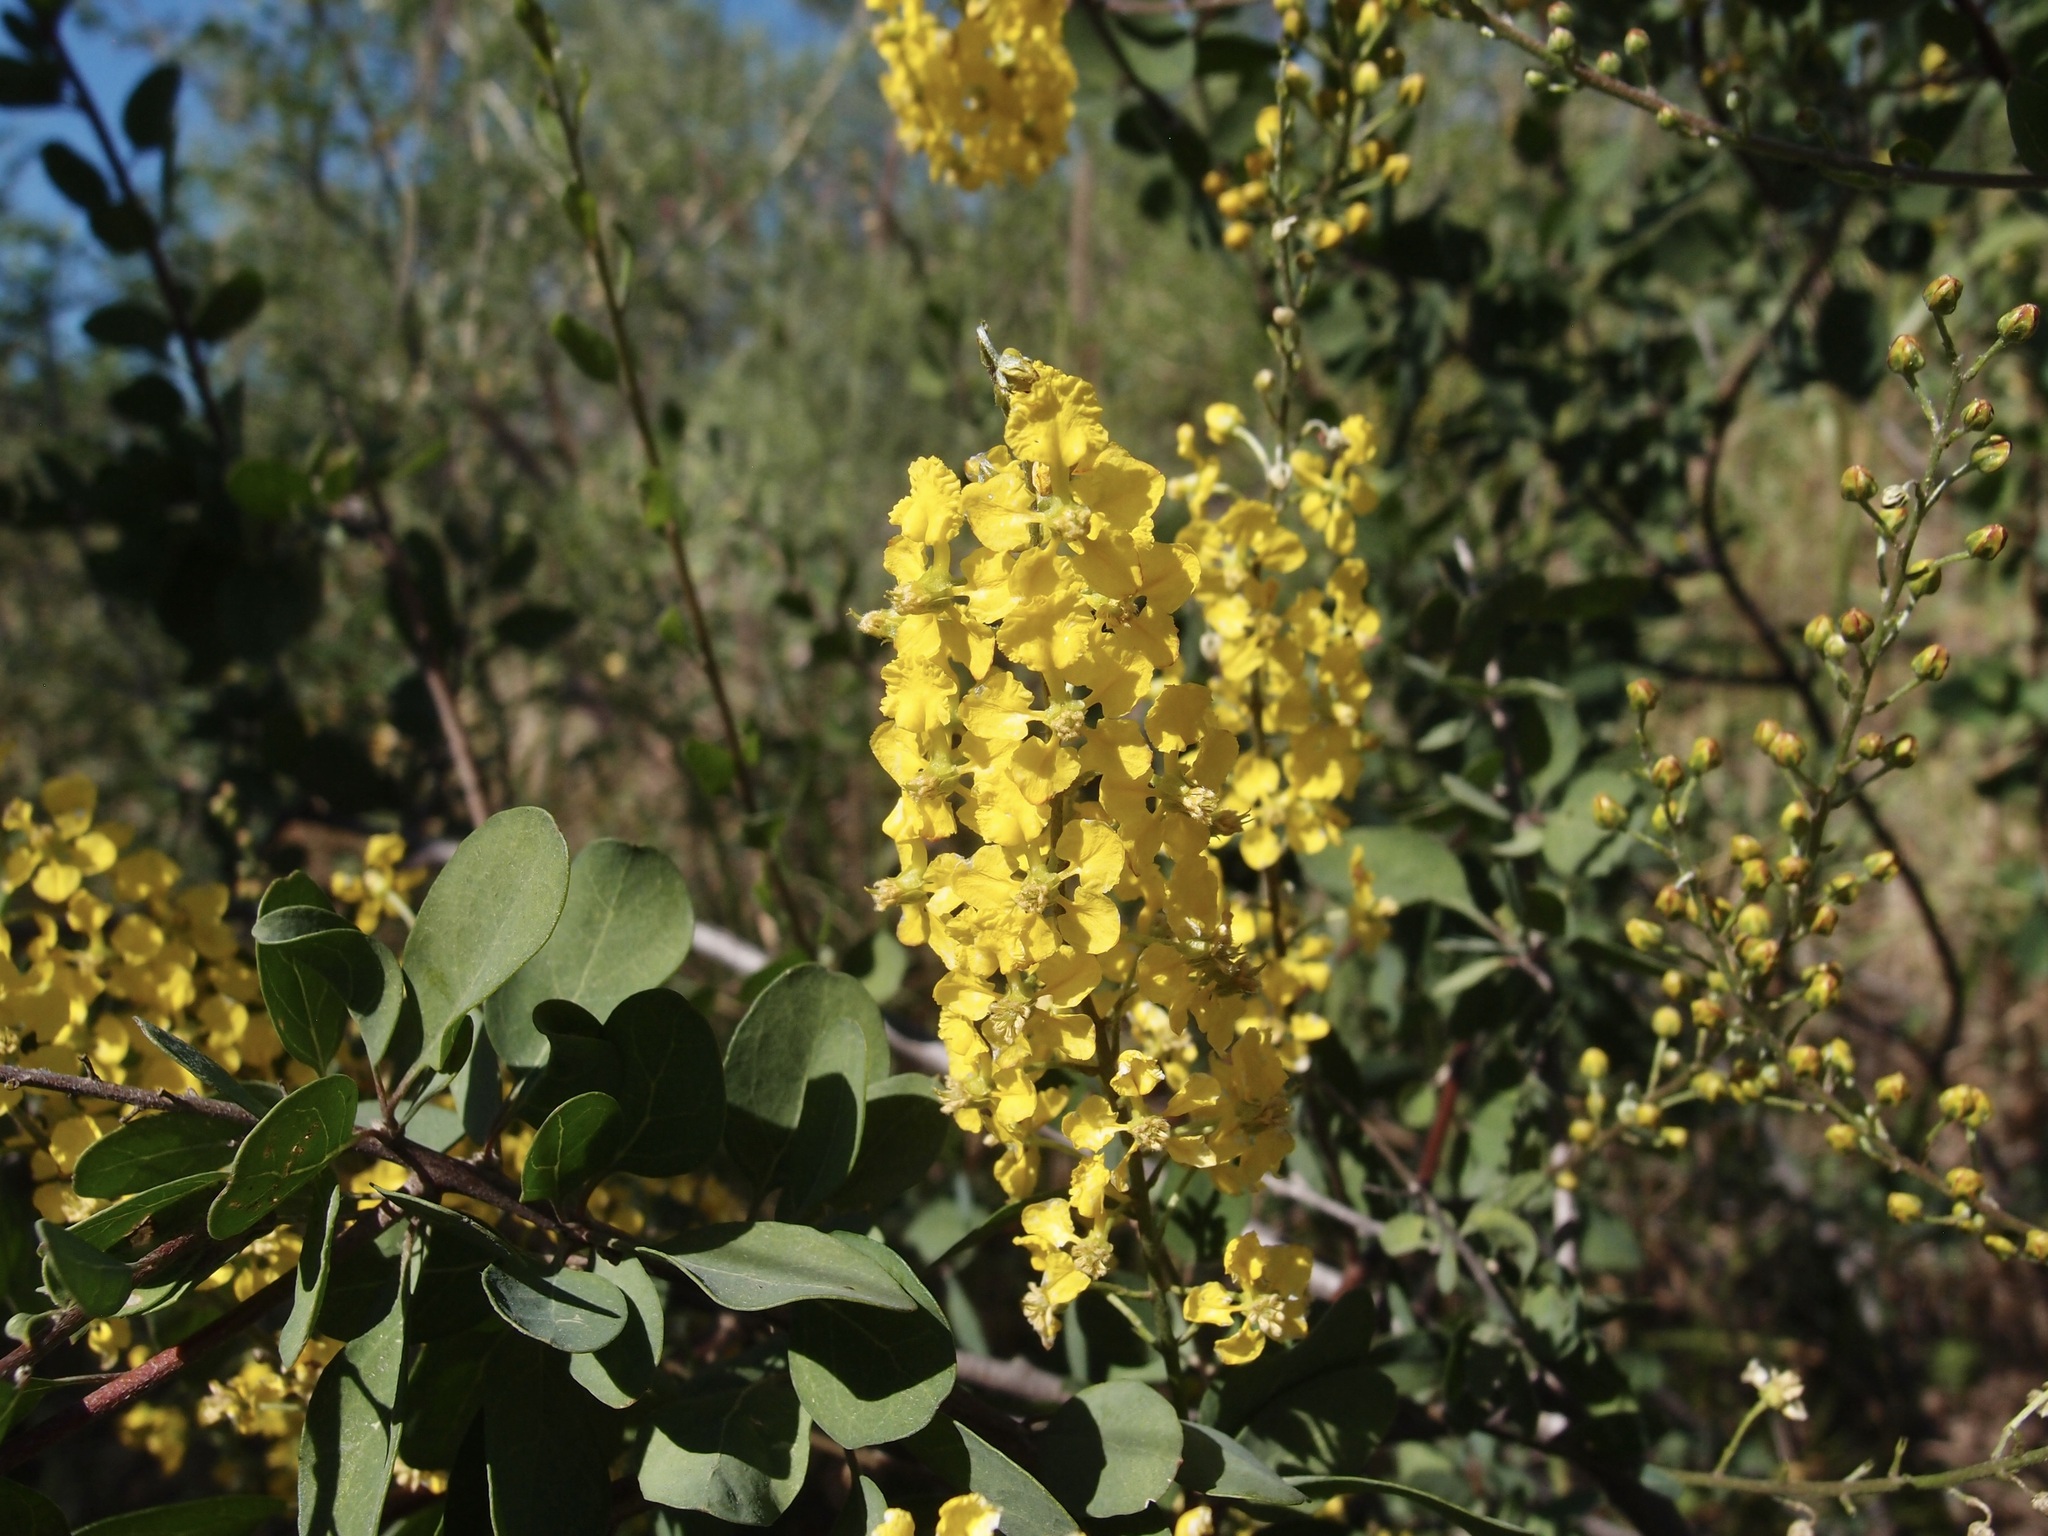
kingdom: Plantae
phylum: Tracheophyta
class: Magnoliopsida
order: Malpighiales
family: Malpighiaceae
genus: Echinopterys
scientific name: Echinopterys eglandulosa
